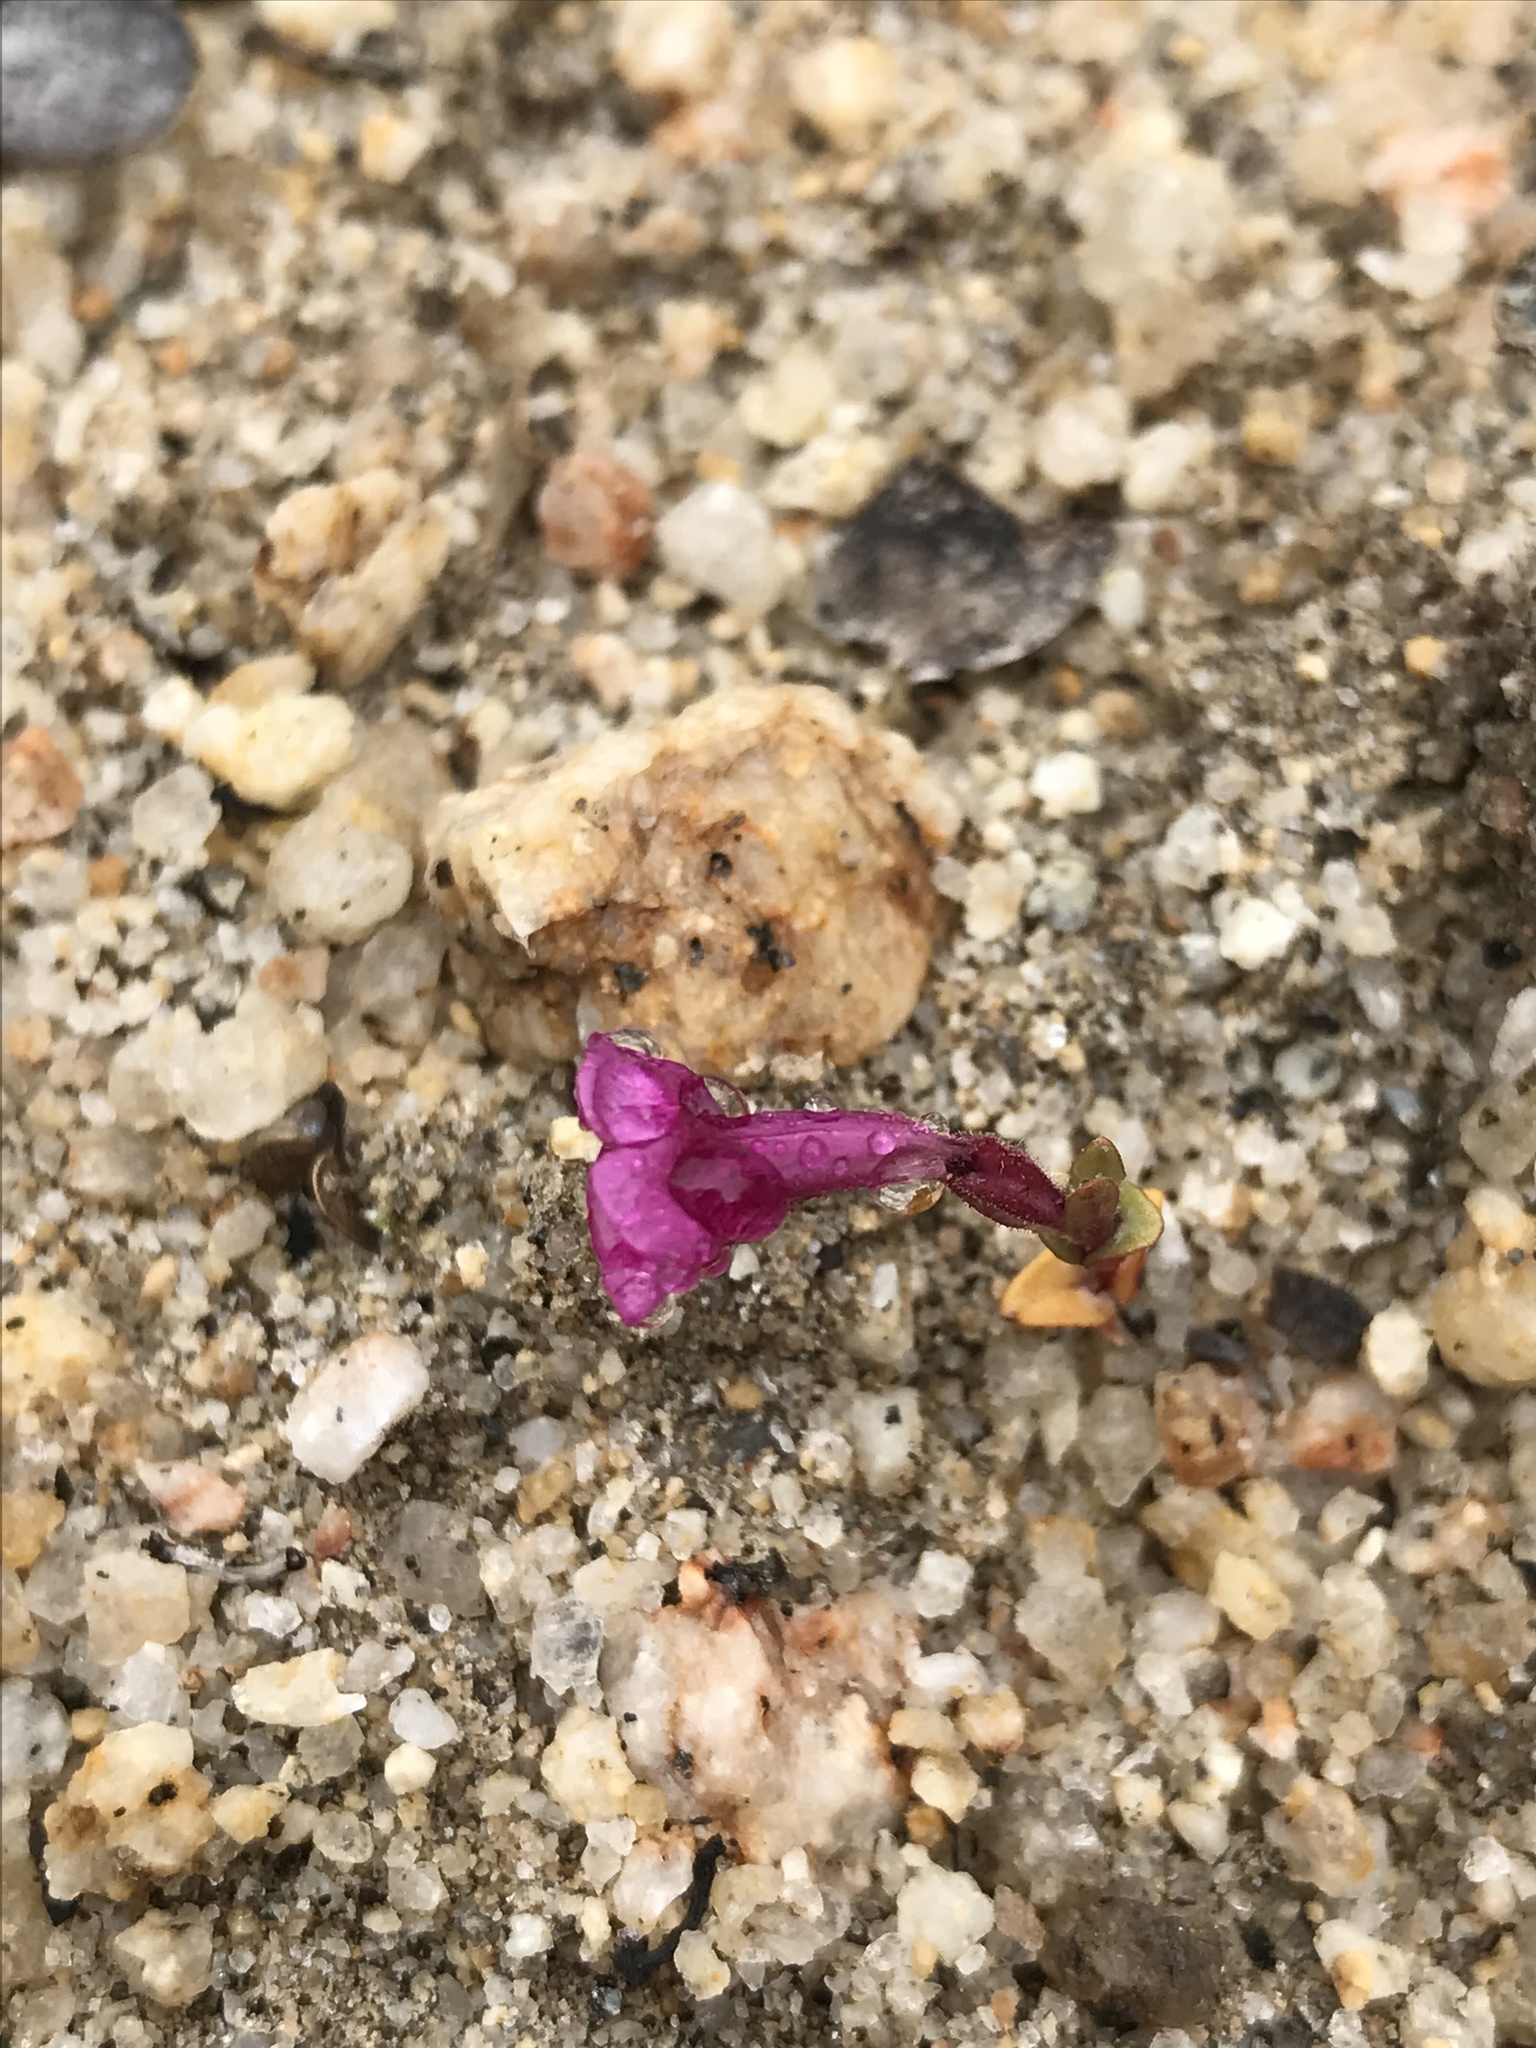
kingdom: Plantae
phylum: Tracheophyta
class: Magnoliopsida
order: Lamiales
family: Phrymaceae
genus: Diplacus
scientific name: Diplacus fremontii
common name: Fremont's monkey-flower
